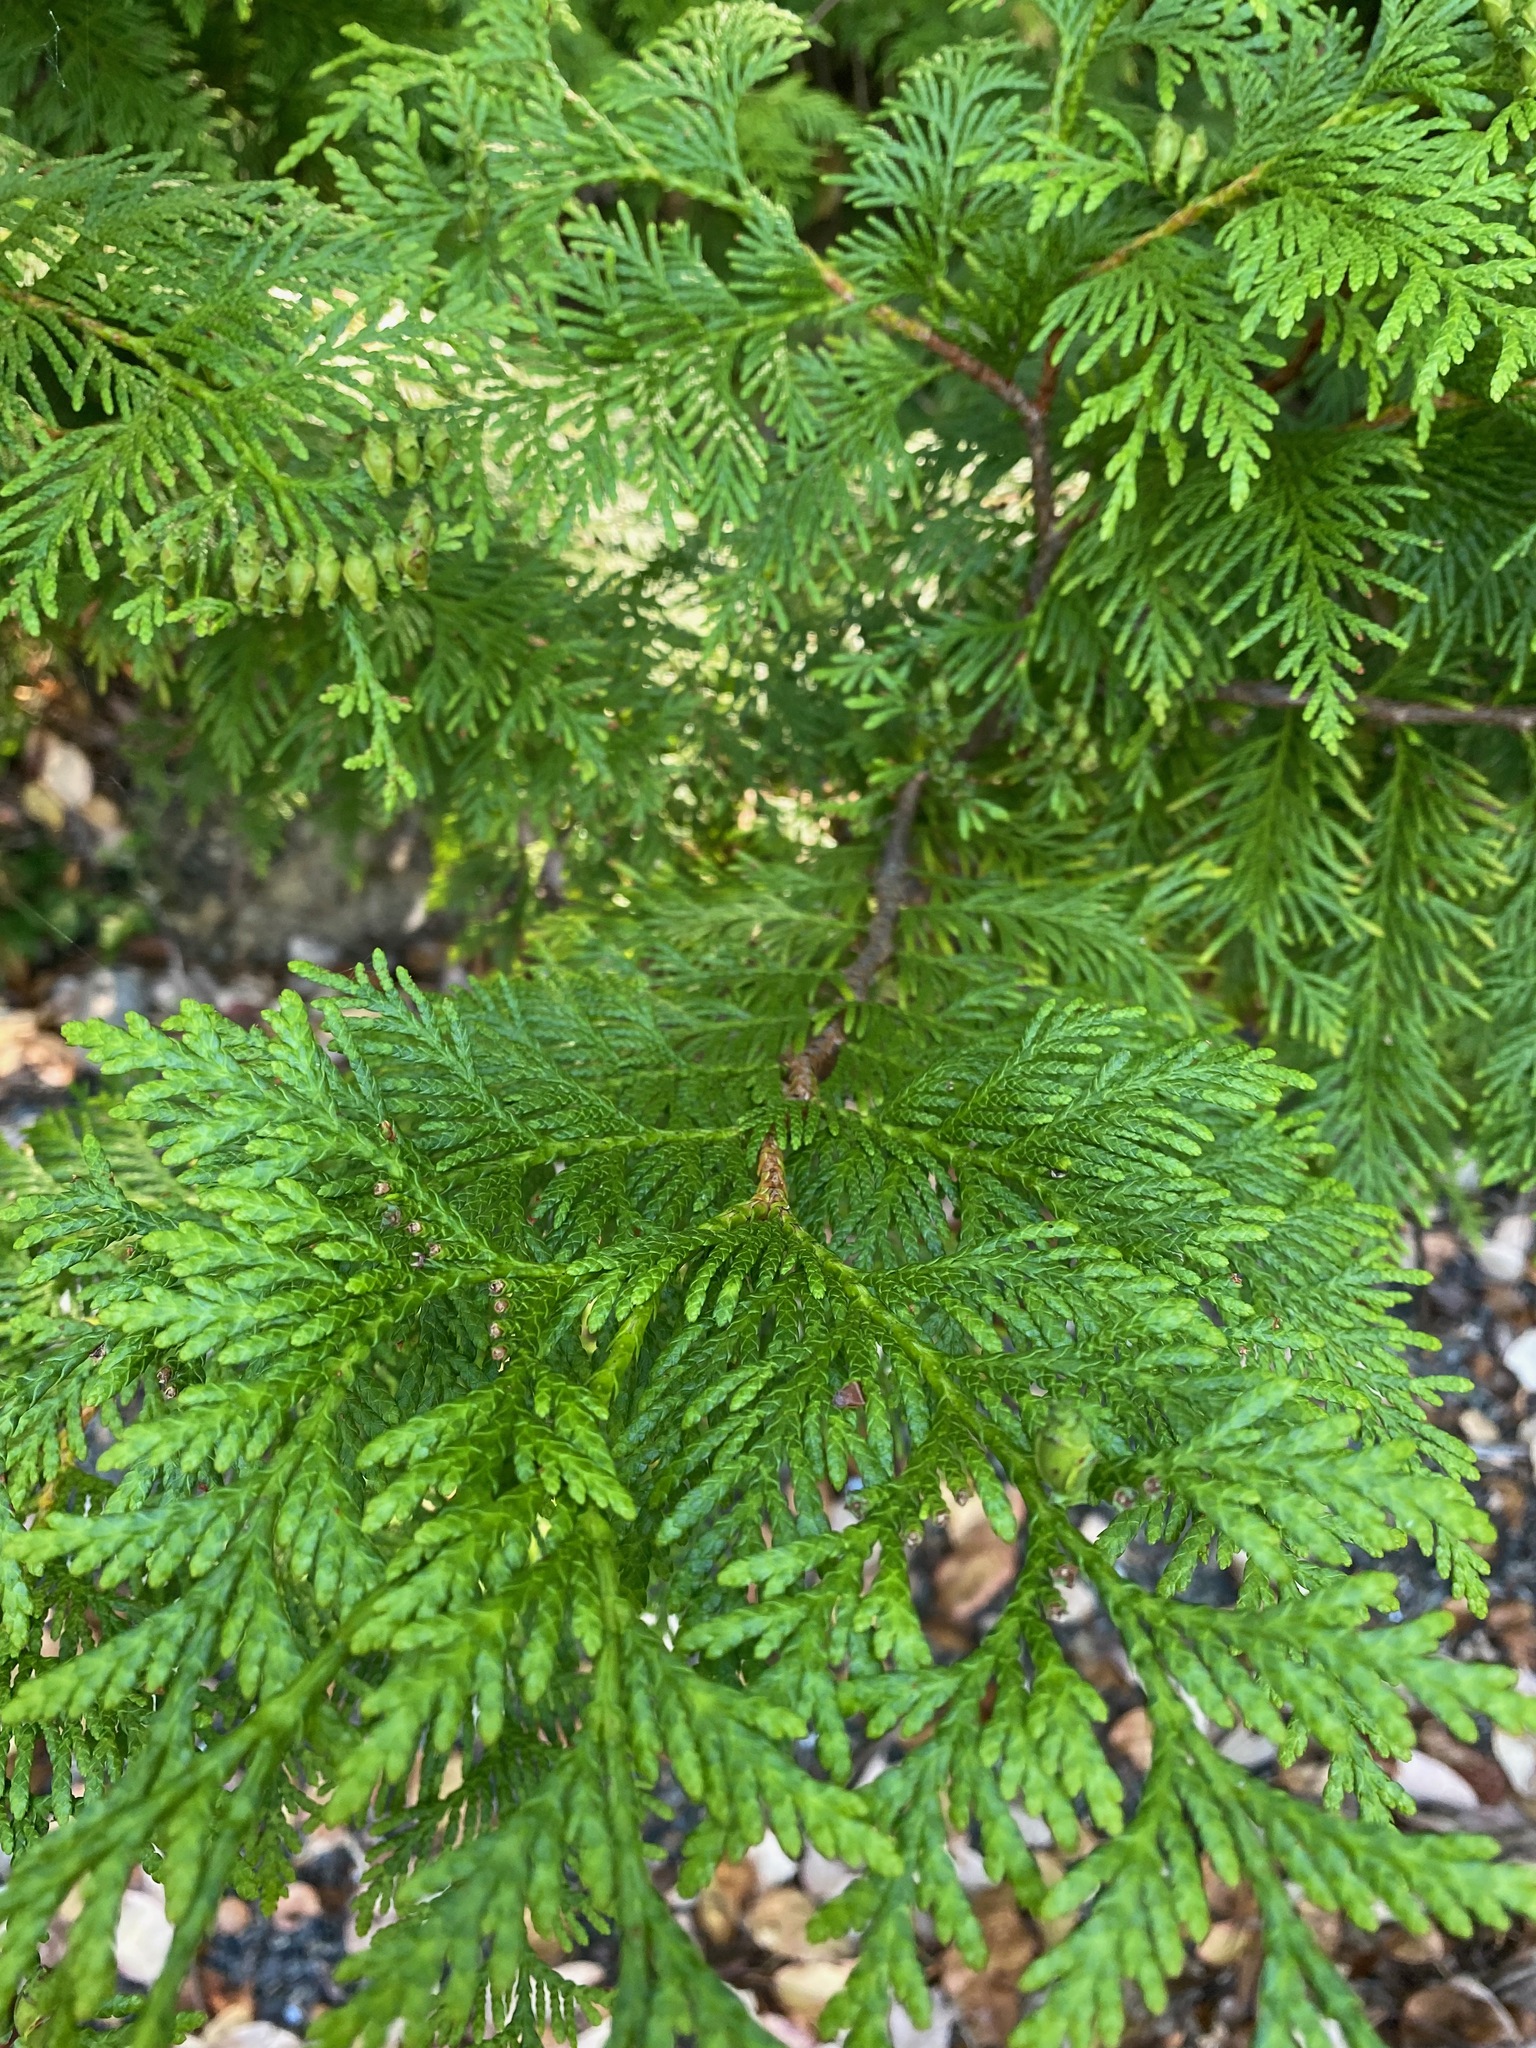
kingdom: Plantae
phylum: Tracheophyta
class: Pinopsida
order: Pinales
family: Cupressaceae
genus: Thuja
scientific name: Thuja plicata
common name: Western red-cedar
